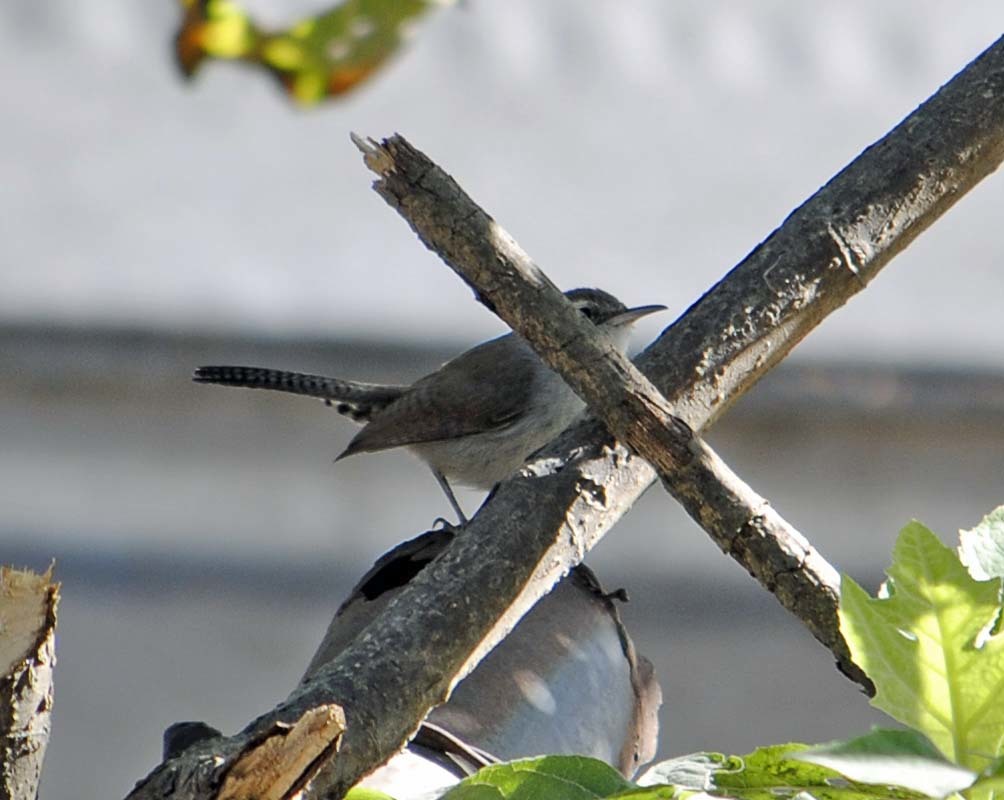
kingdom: Animalia
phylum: Chordata
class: Aves
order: Passeriformes
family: Troglodytidae
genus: Thryomanes
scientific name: Thryomanes bewickii
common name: Bewick's wren
